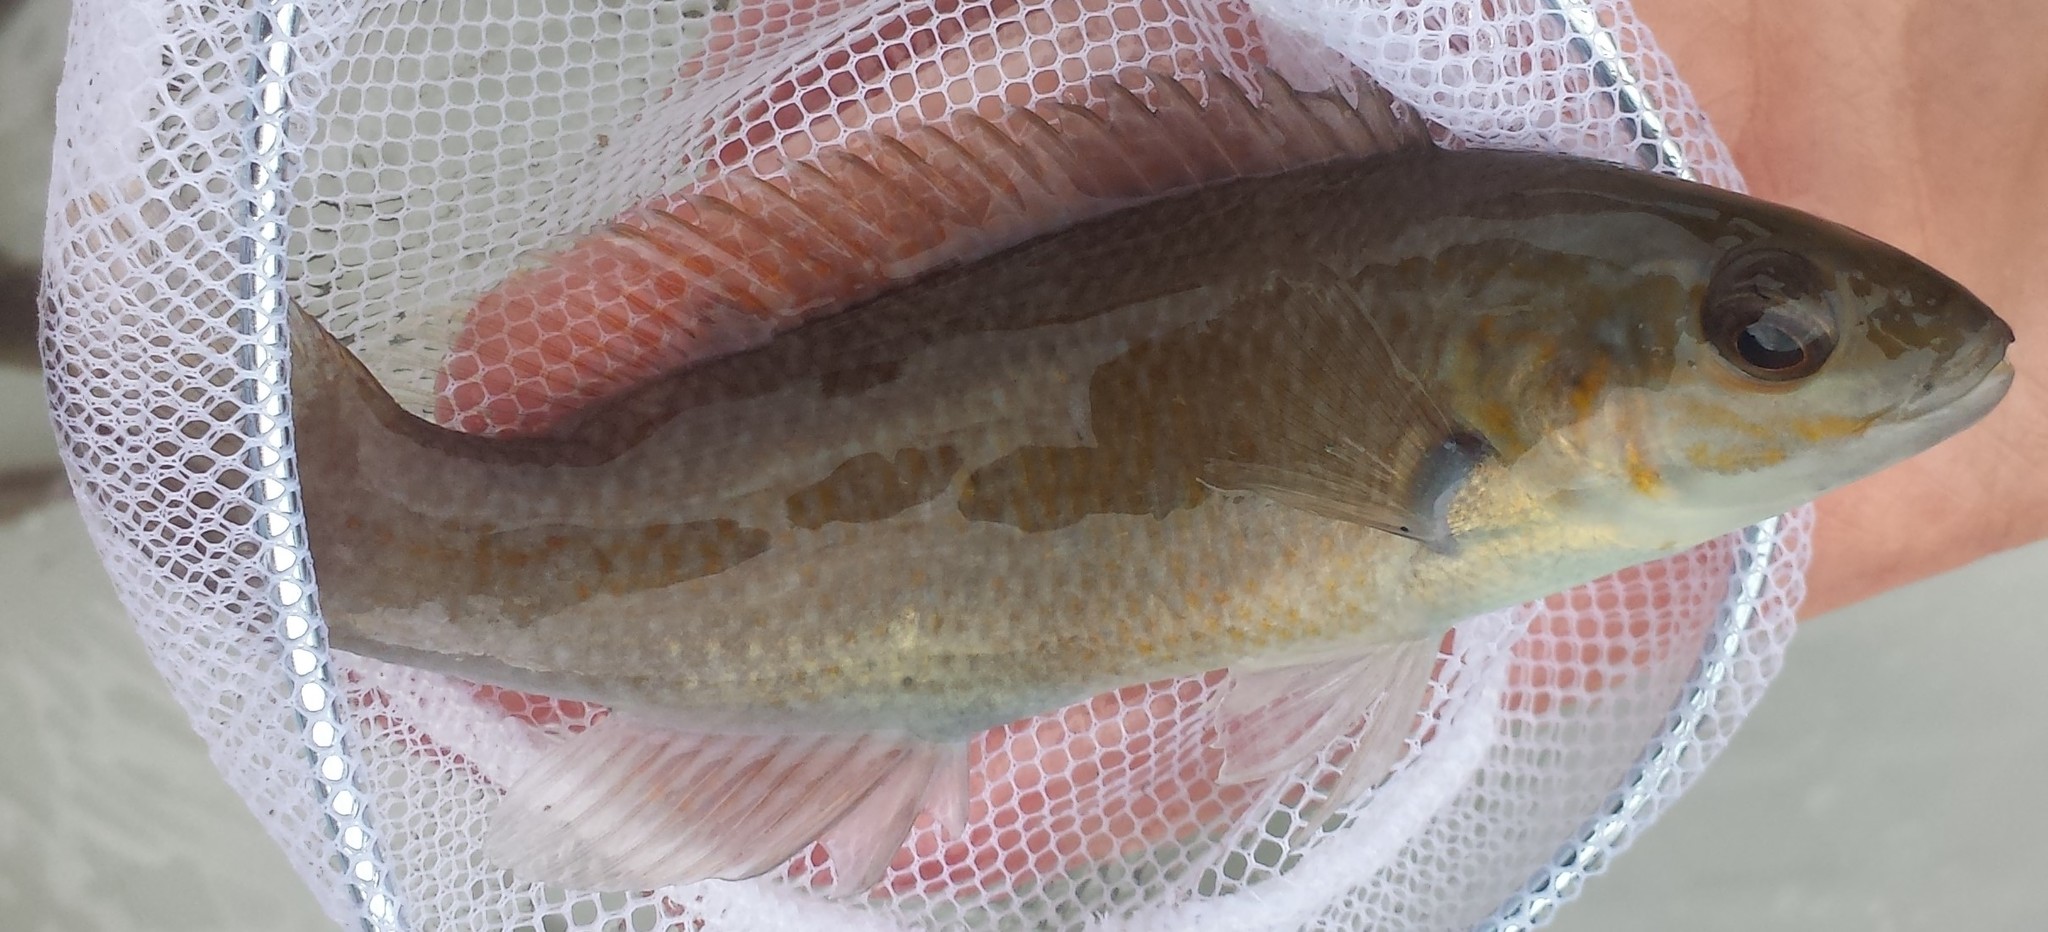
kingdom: Animalia
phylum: Chordata
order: Perciformes
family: Labridae
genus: Tautogolabrus
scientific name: Tautogolabrus adspersus
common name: Cunner
